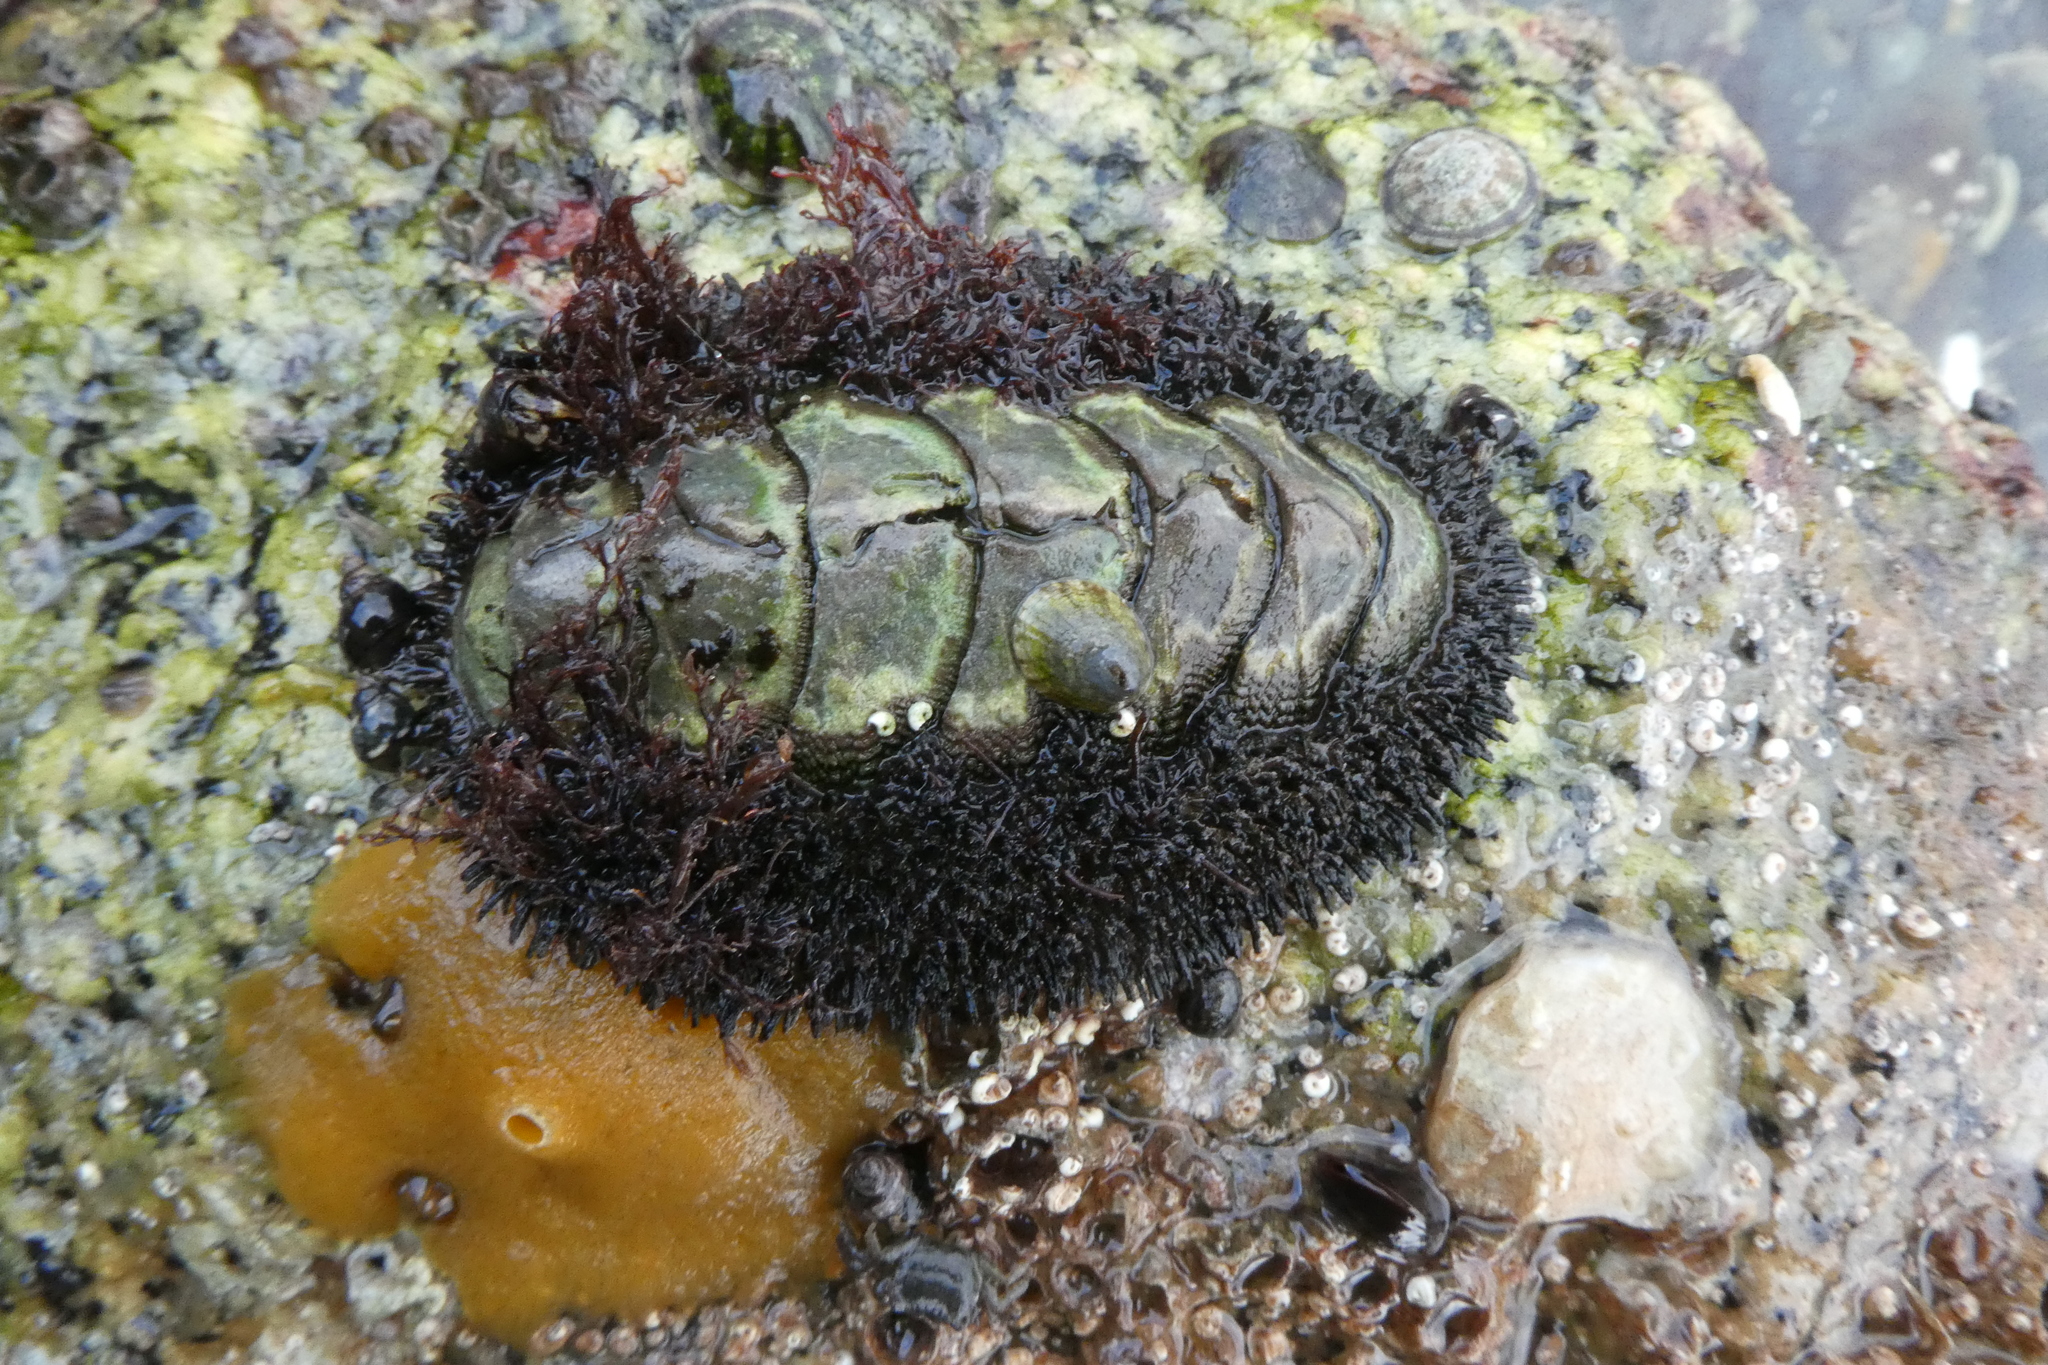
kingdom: Animalia
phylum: Mollusca
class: Polyplacophora
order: Chitonida
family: Mopaliidae
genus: Mopalia
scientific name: Mopalia muscosa
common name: Mossy chiton
